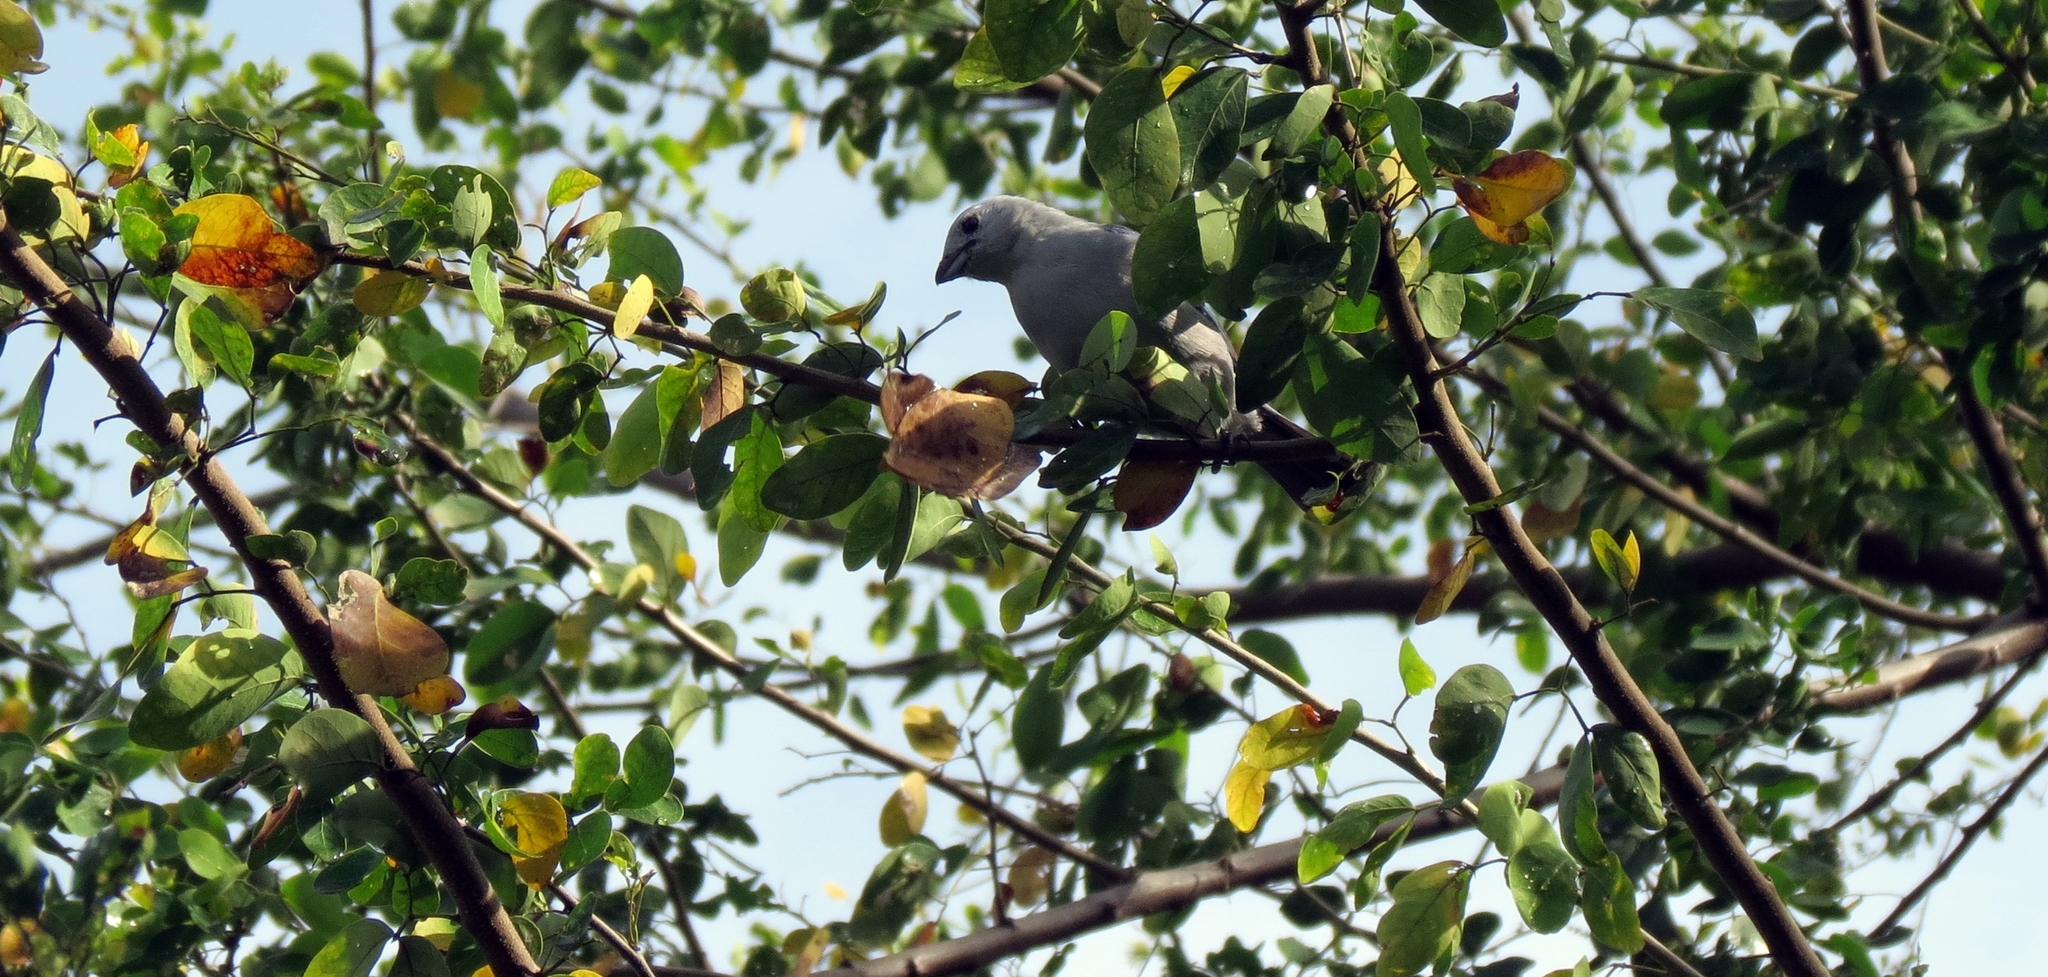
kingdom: Animalia
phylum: Chordata
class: Aves
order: Passeriformes
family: Thraupidae
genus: Thraupis
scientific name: Thraupis episcopus
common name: Blue-grey tanager
